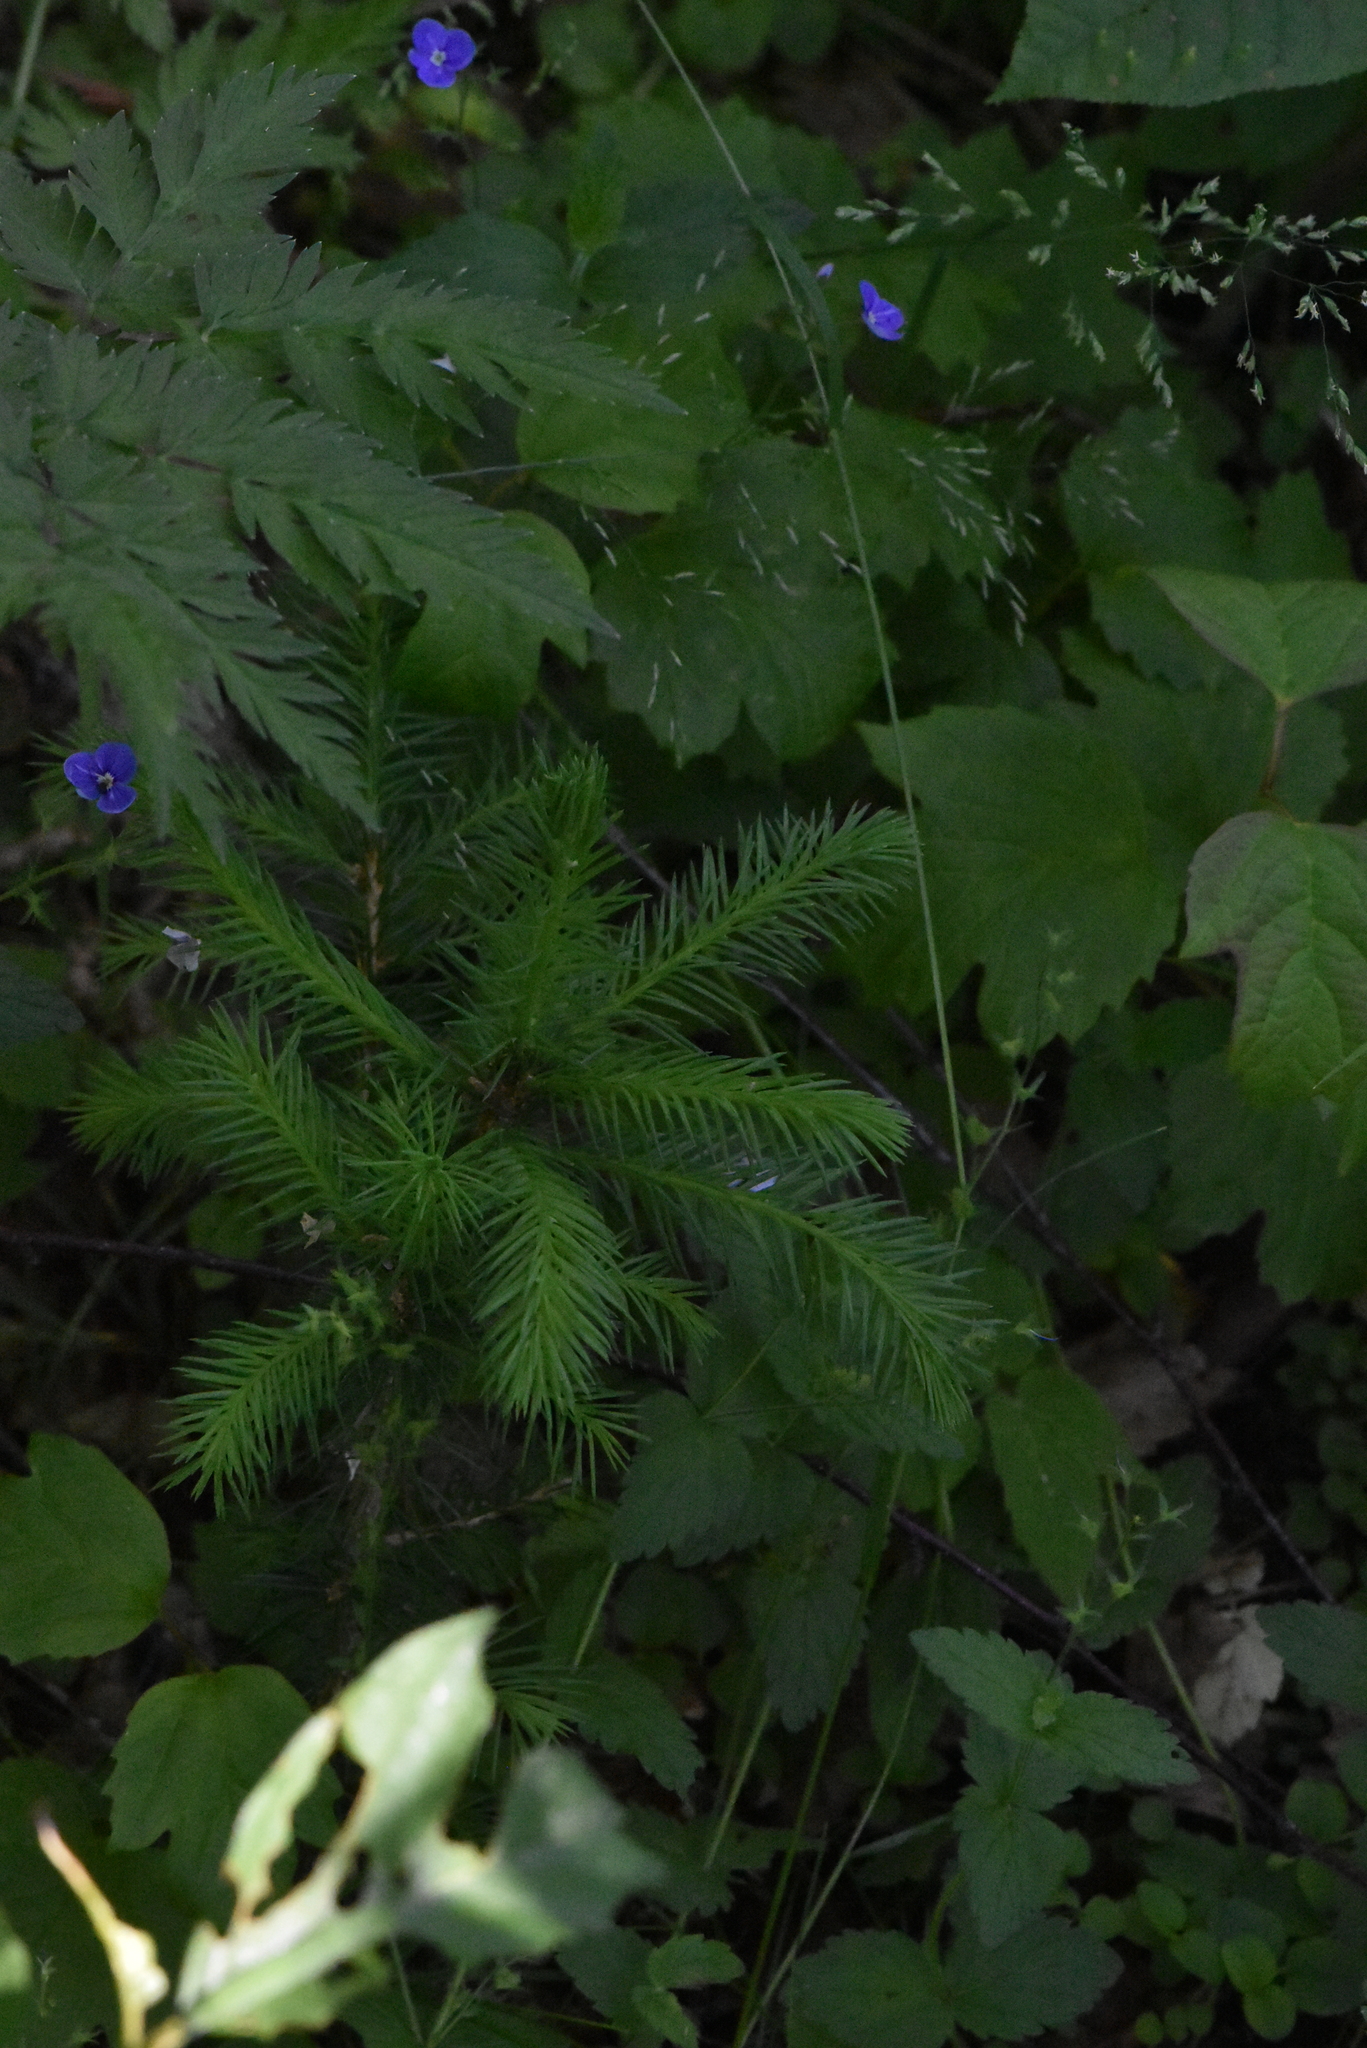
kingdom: Plantae
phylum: Tracheophyta
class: Pinopsida
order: Pinales
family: Pinaceae
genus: Picea
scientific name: Picea abies
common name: Norway spruce
